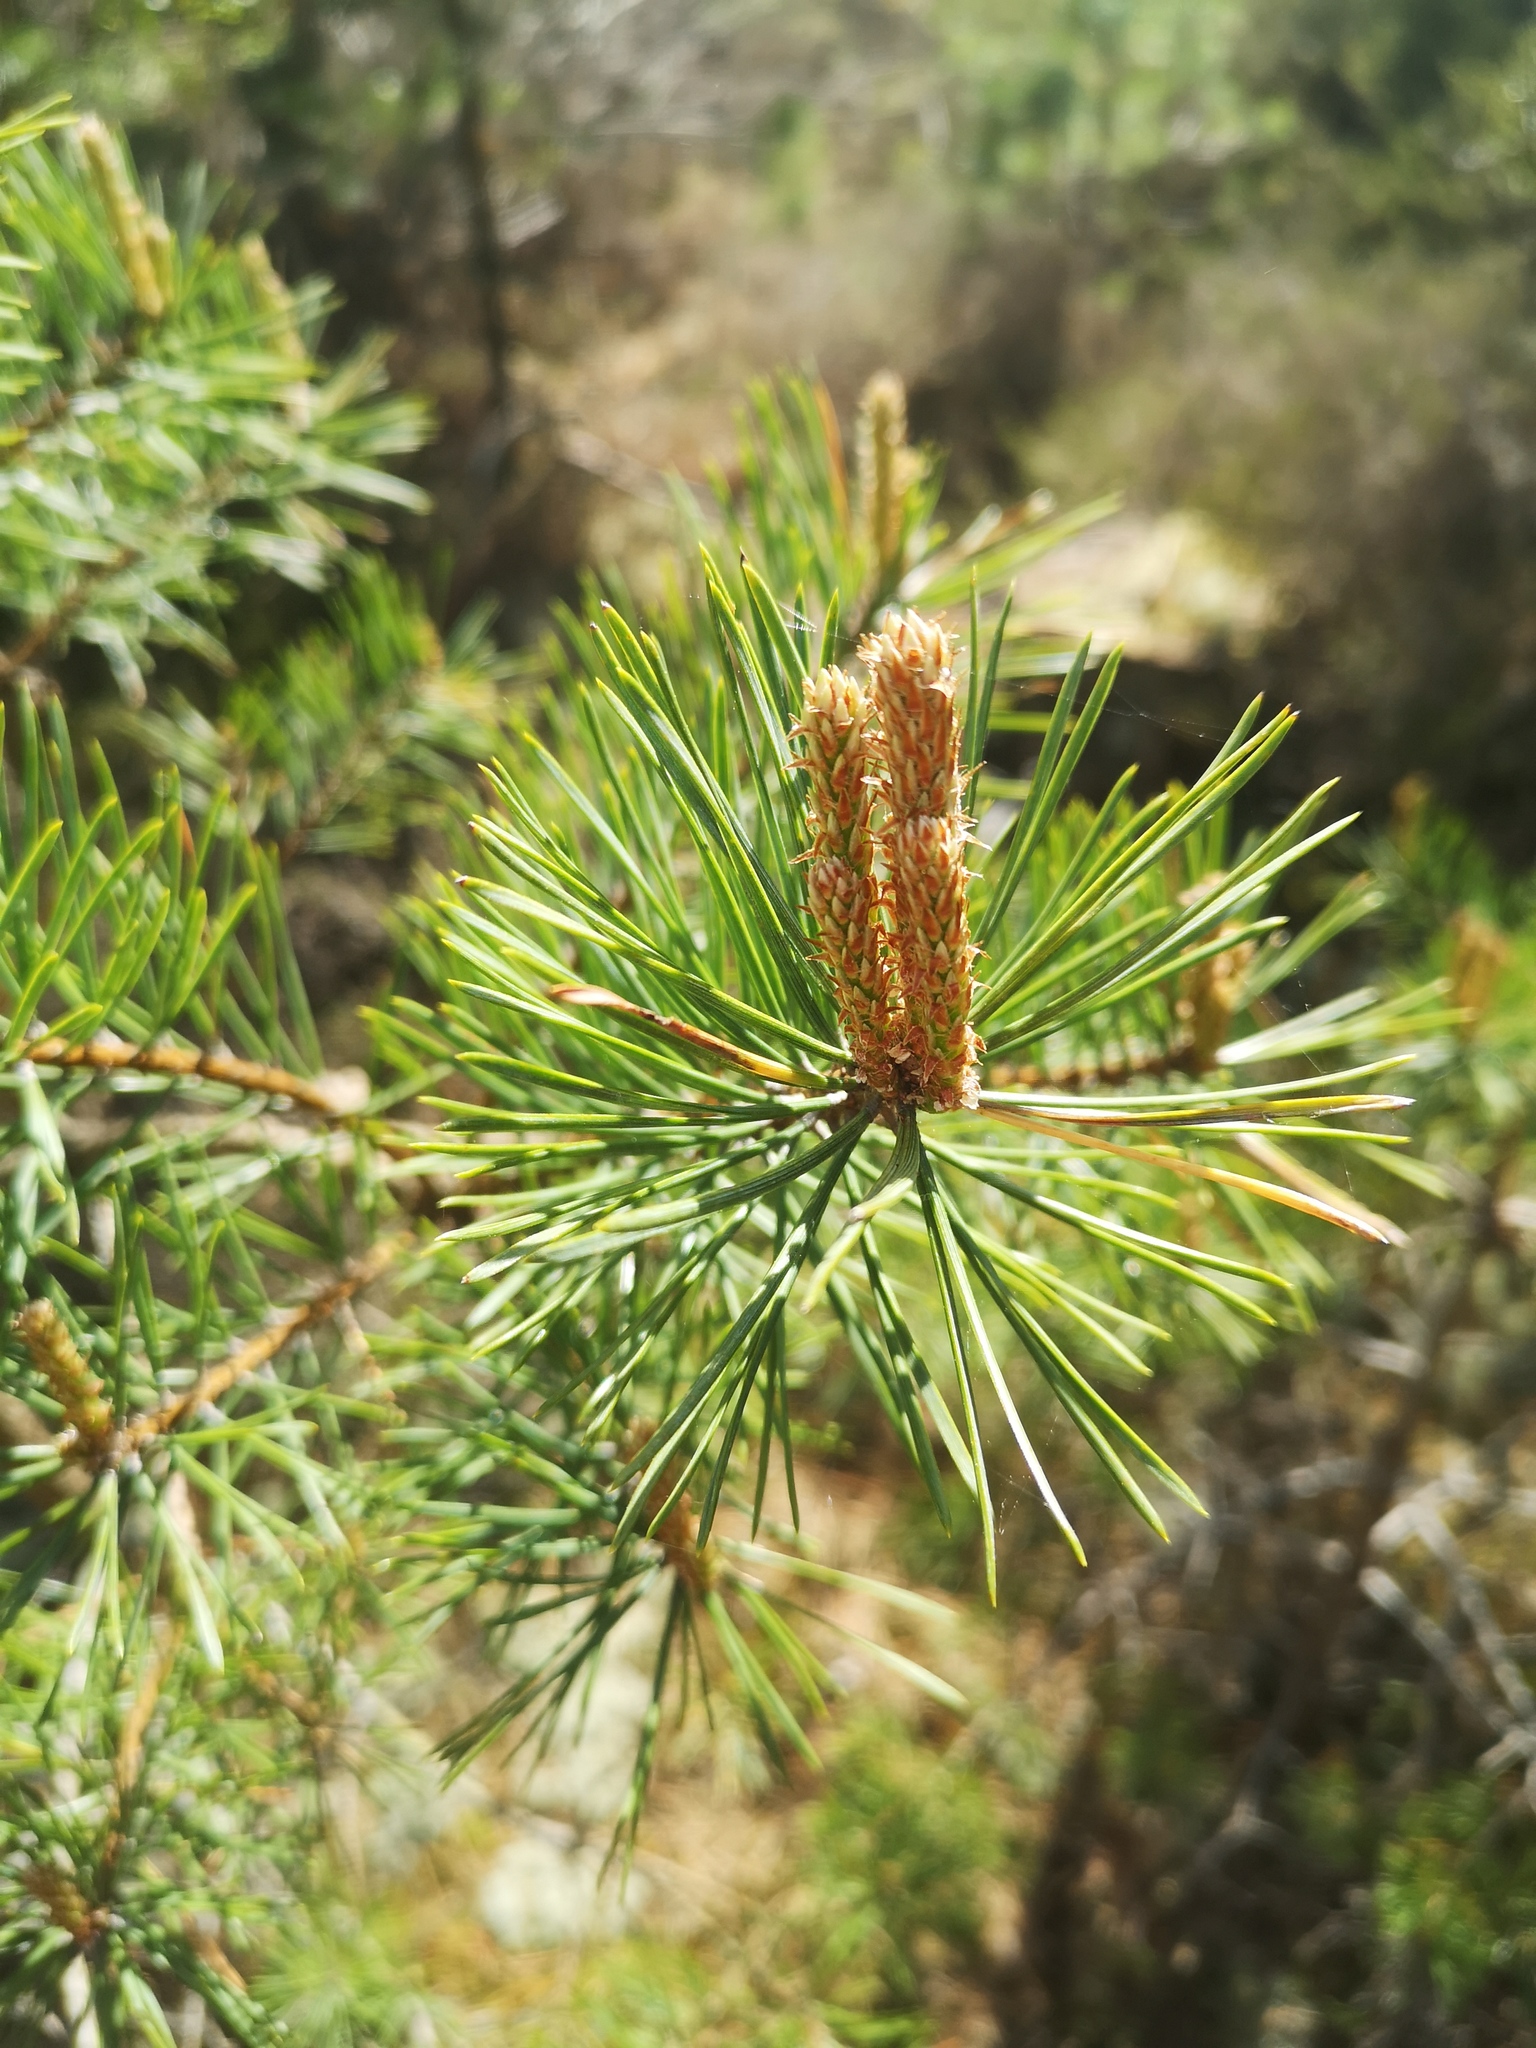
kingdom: Plantae
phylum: Tracheophyta
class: Pinopsida
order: Pinales
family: Pinaceae
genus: Pinus
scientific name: Pinus sylvestris
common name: Scots pine
